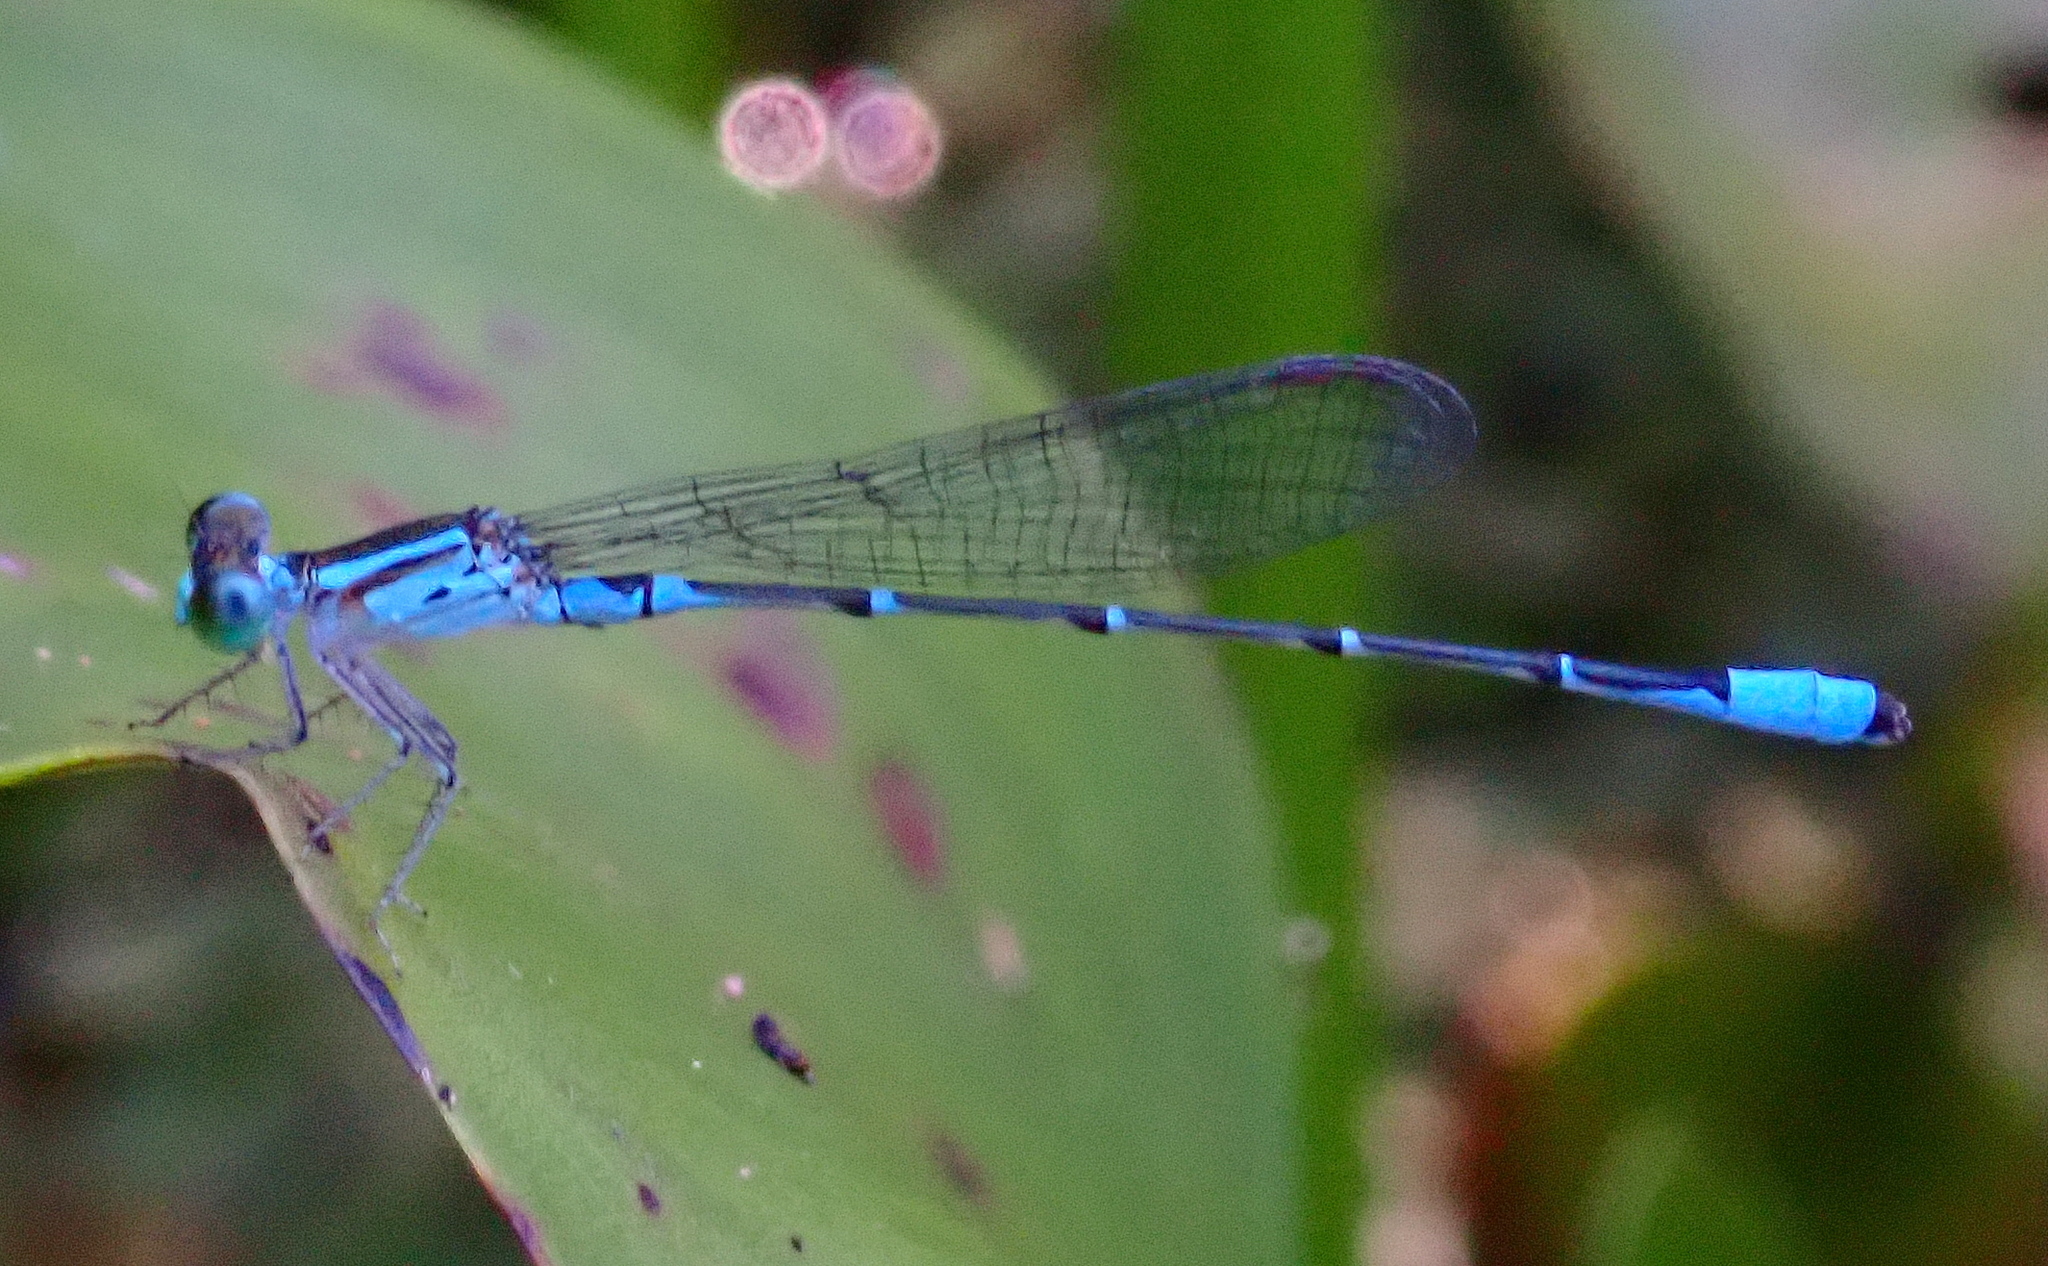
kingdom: Animalia
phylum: Arthropoda
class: Insecta
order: Odonata
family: Coenagrionidae
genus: Telebasis
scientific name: Telebasis obsoleta
